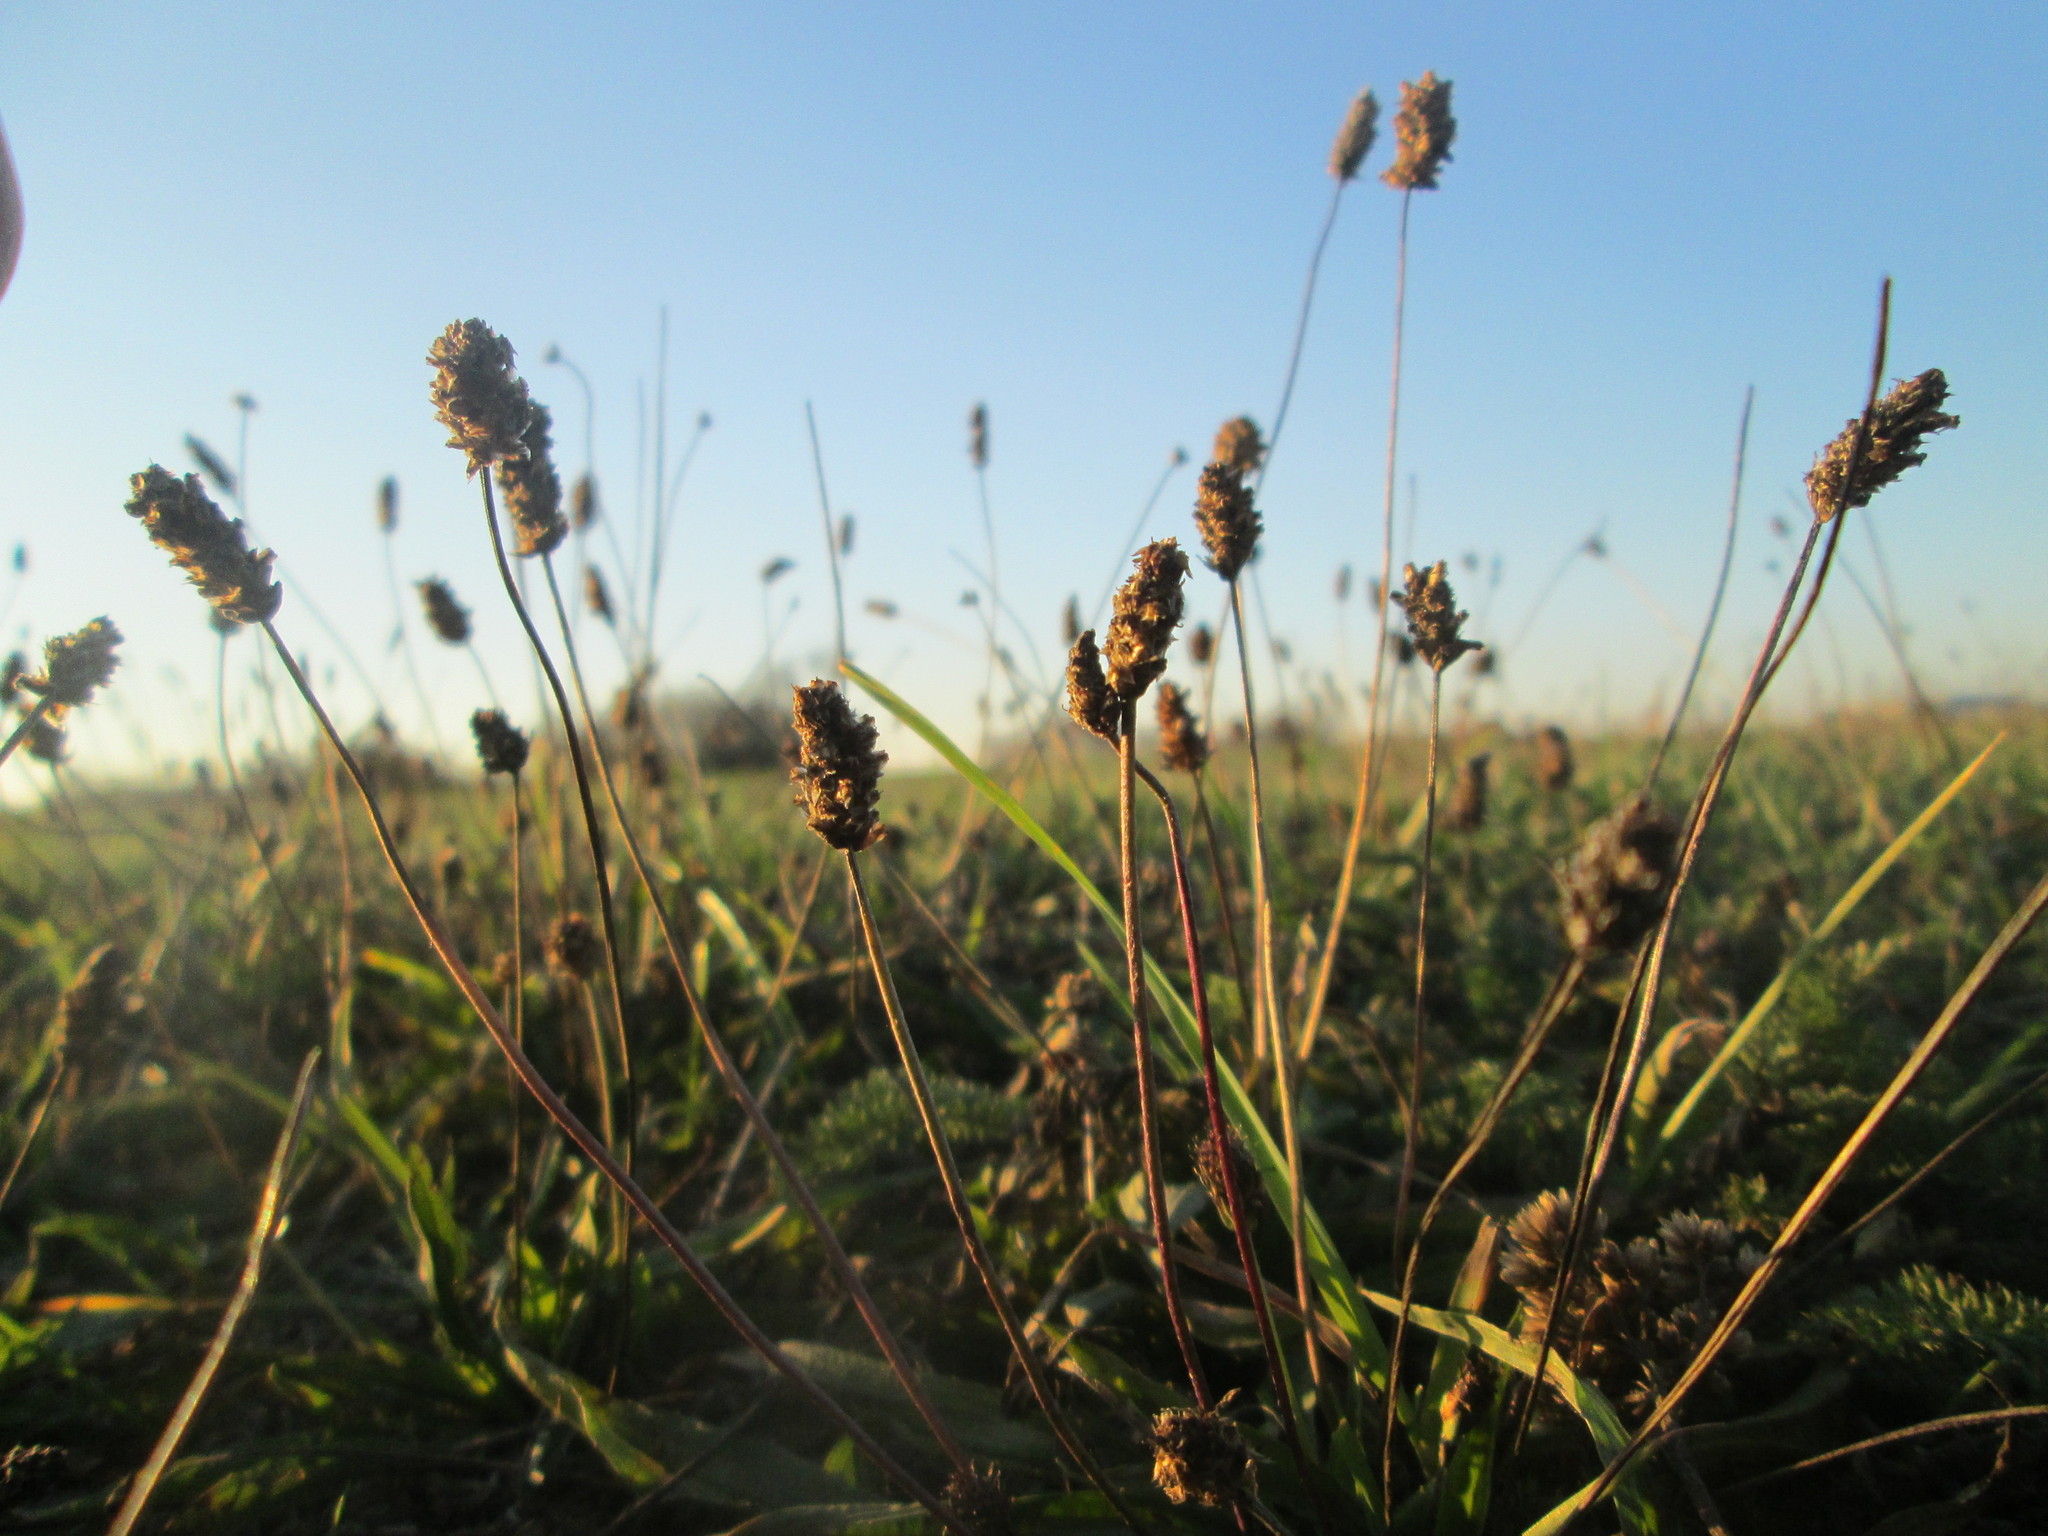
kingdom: Plantae
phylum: Tracheophyta
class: Magnoliopsida
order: Lamiales
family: Plantaginaceae
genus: Plantago
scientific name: Plantago lanceolata
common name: Ribwort plantain
